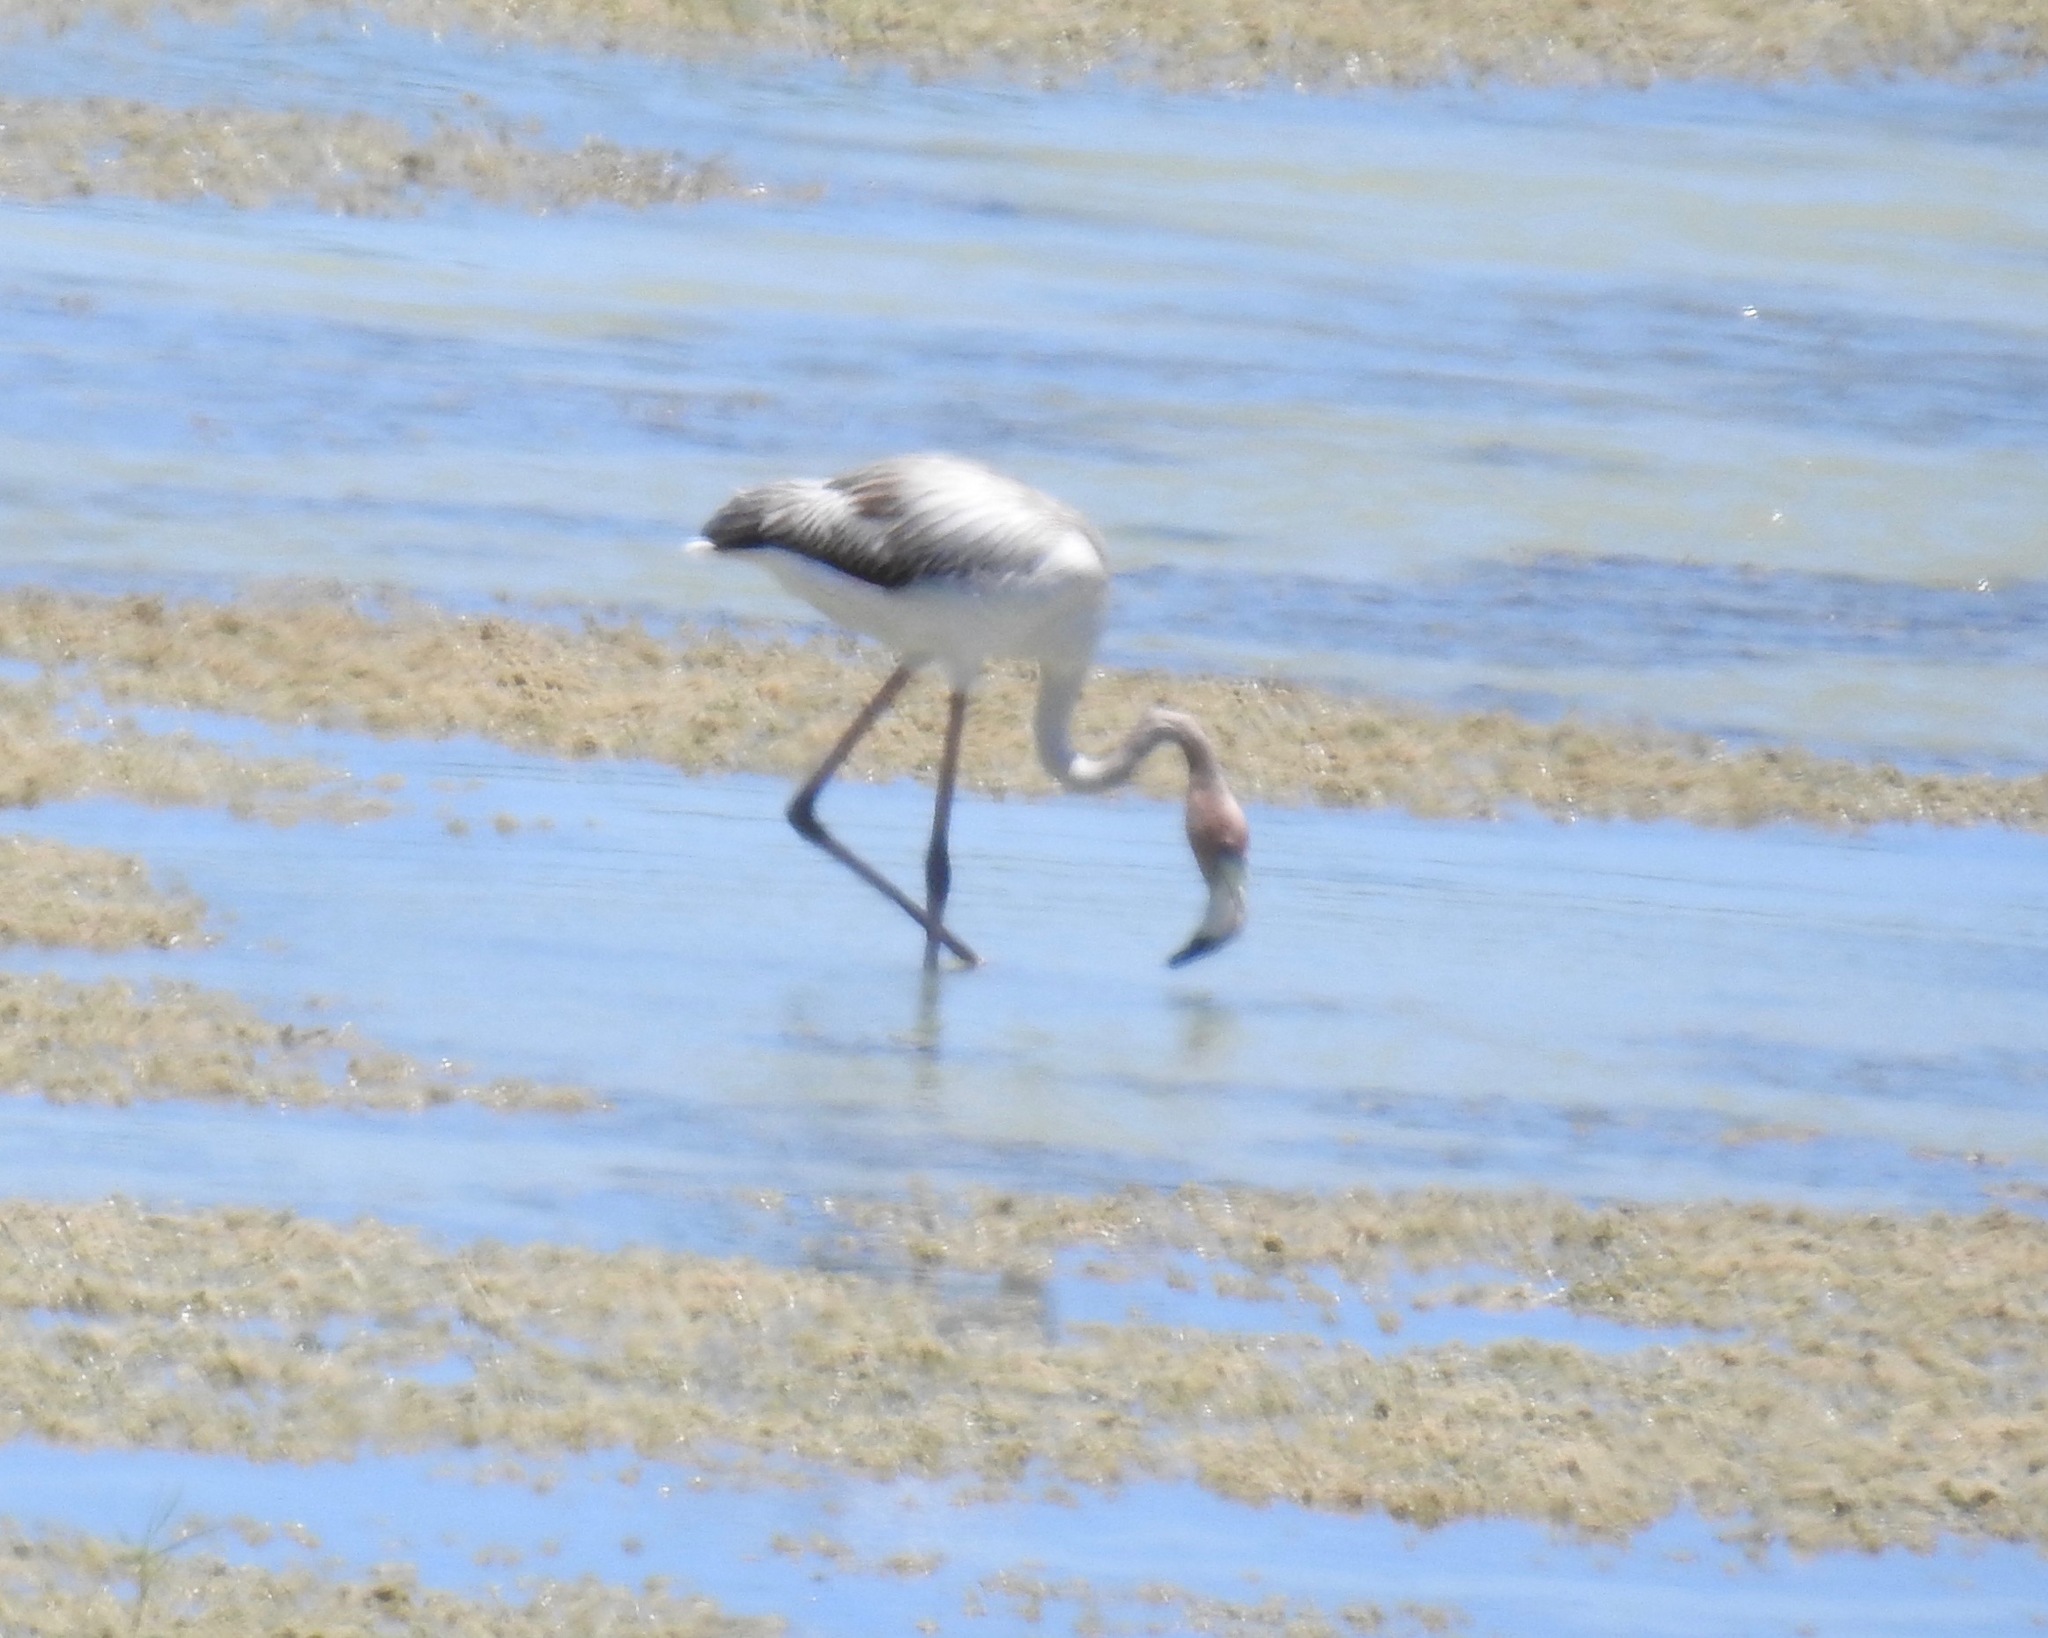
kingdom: Animalia
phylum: Chordata
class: Aves
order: Phoenicopteriformes
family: Phoenicopteridae
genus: Phoenicopterus
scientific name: Phoenicopterus ruber
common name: American flamingo
